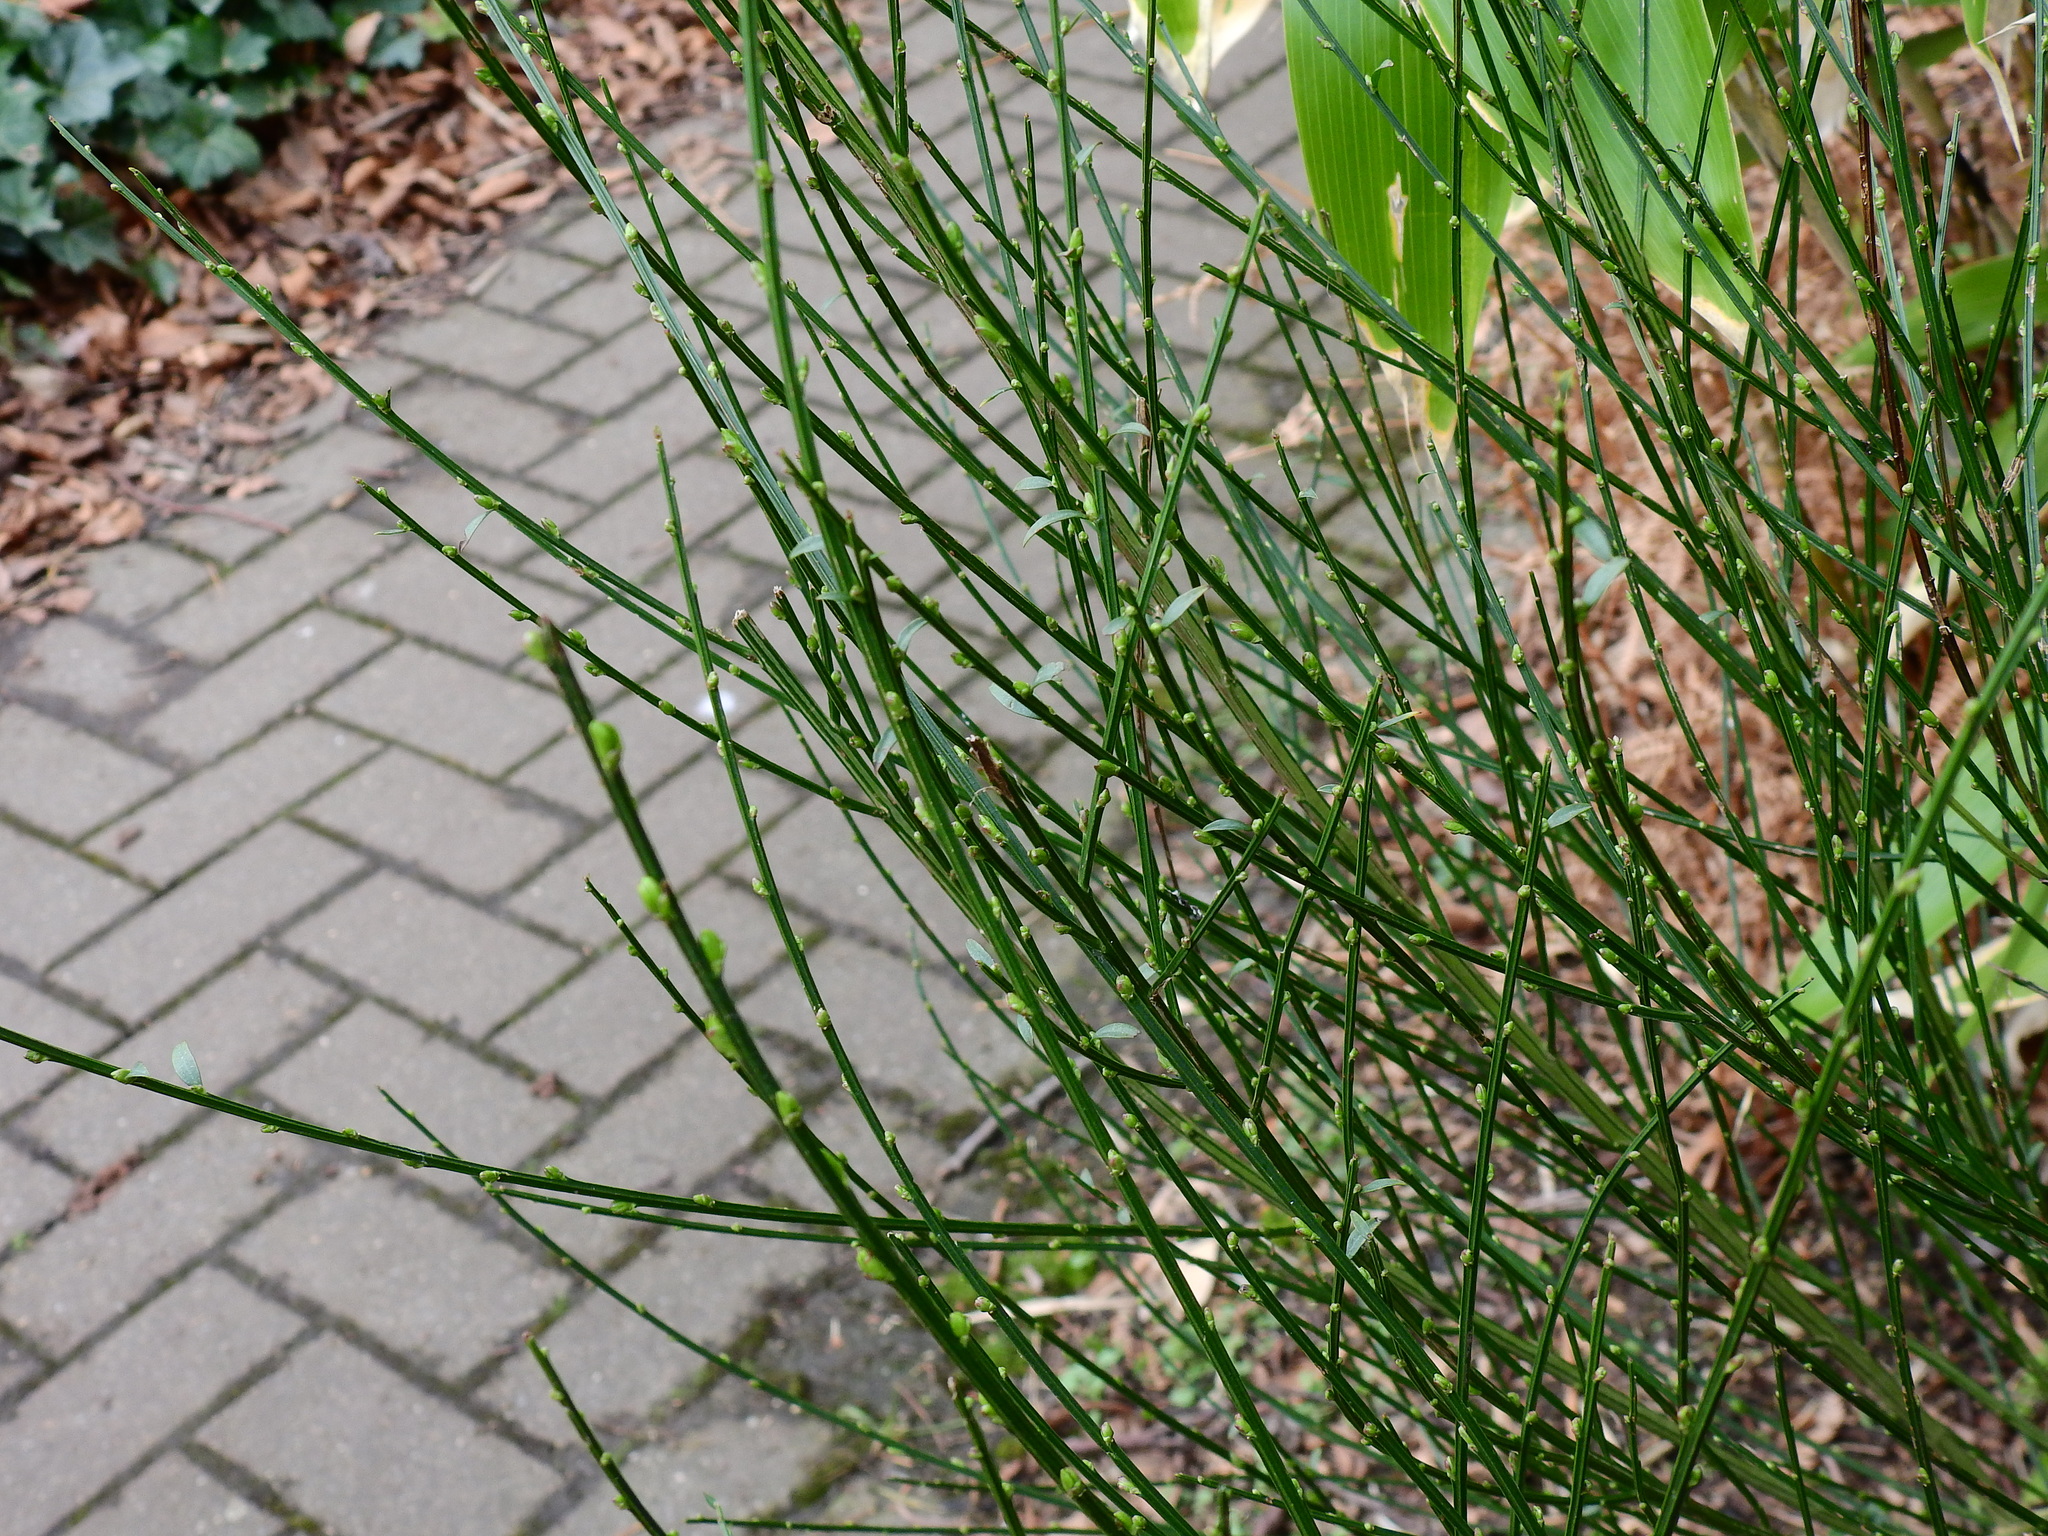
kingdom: Plantae
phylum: Tracheophyta
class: Magnoliopsida
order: Fabales
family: Fabaceae
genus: Cytisus
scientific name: Cytisus scoparius
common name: Scotch broom
